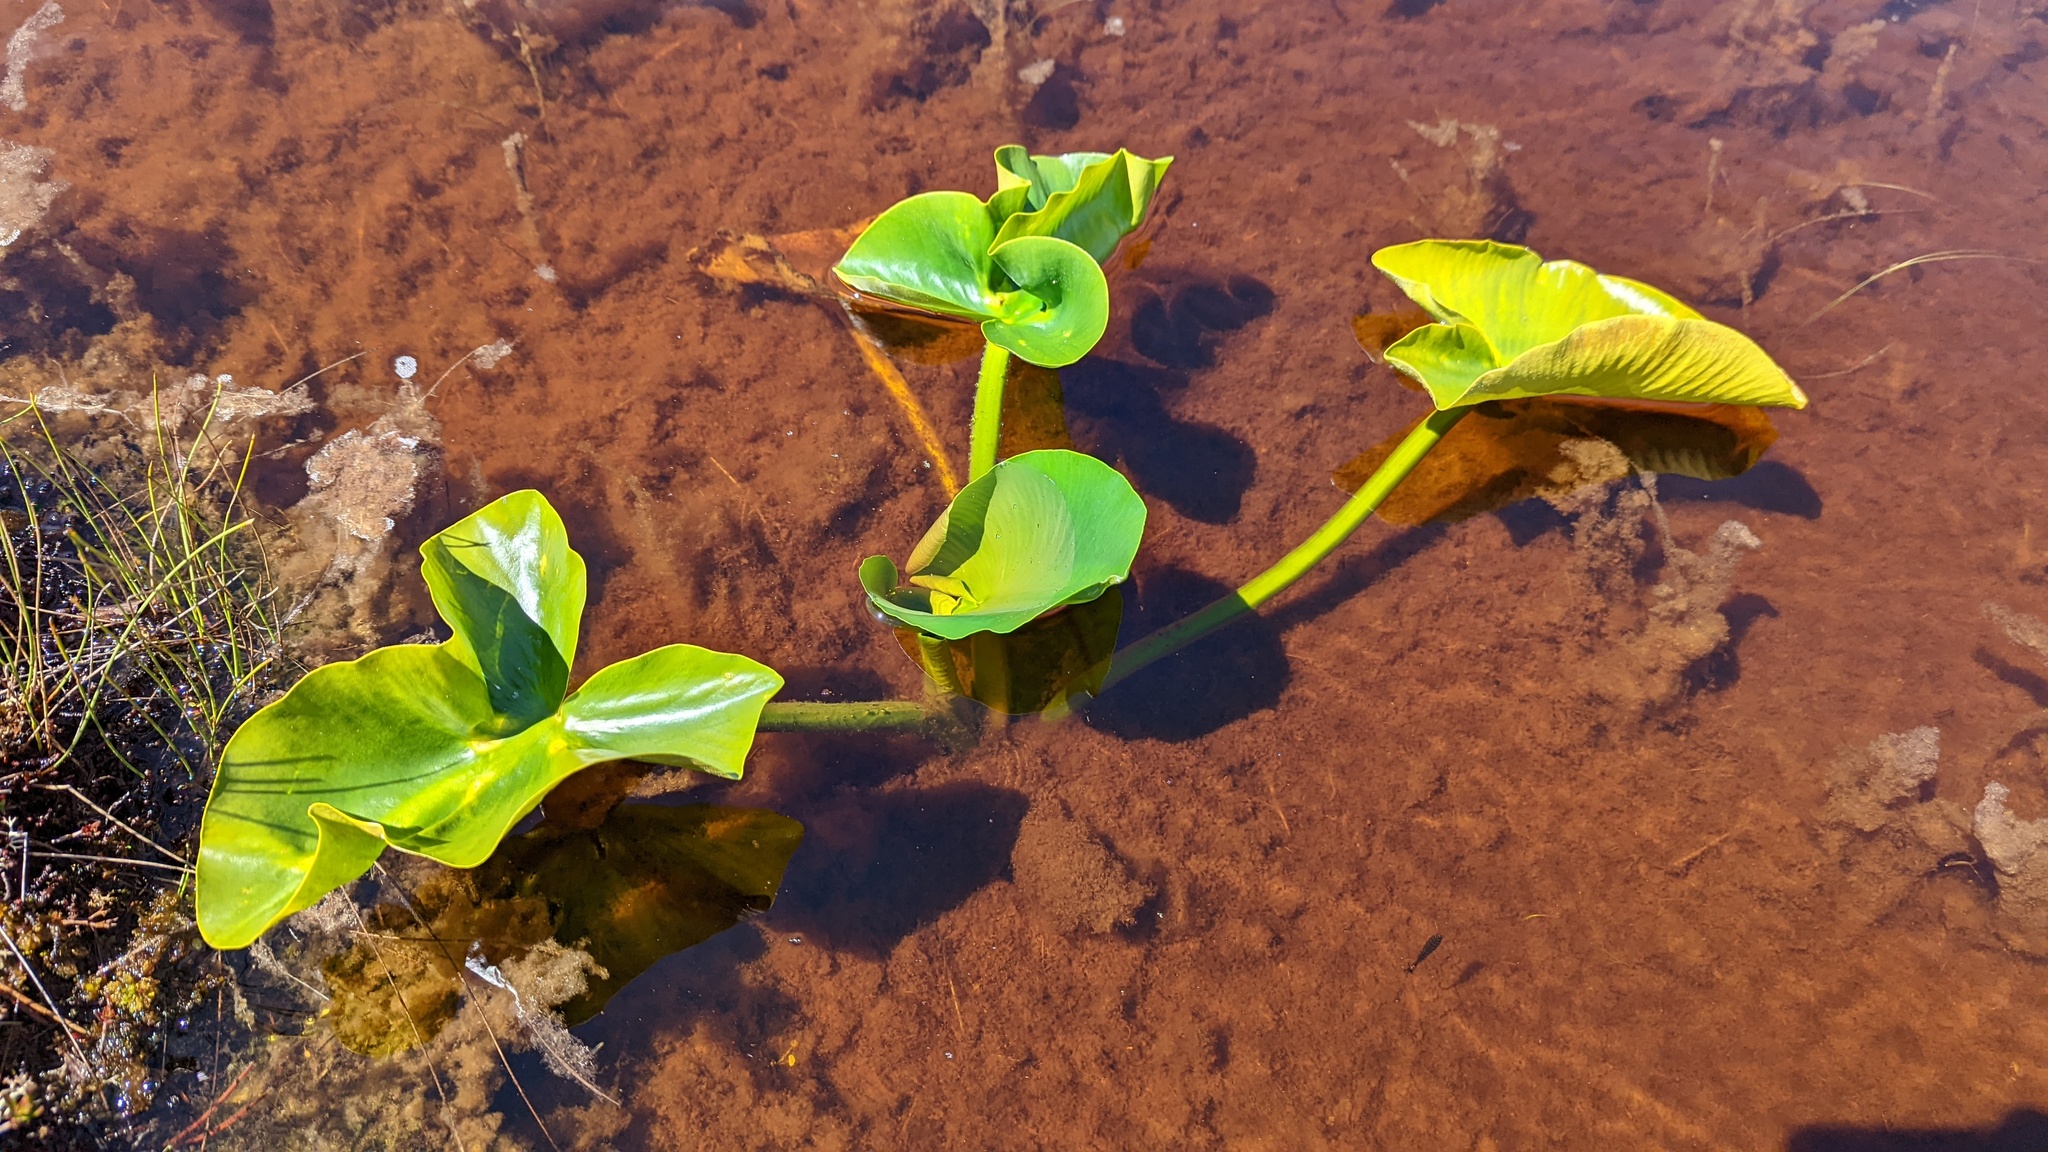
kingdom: Plantae
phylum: Tracheophyta
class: Magnoliopsida
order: Nymphaeales
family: Nymphaeaceae
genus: Nuphar
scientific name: Nuphar polysepala
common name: Rocky mountain cow-lily
